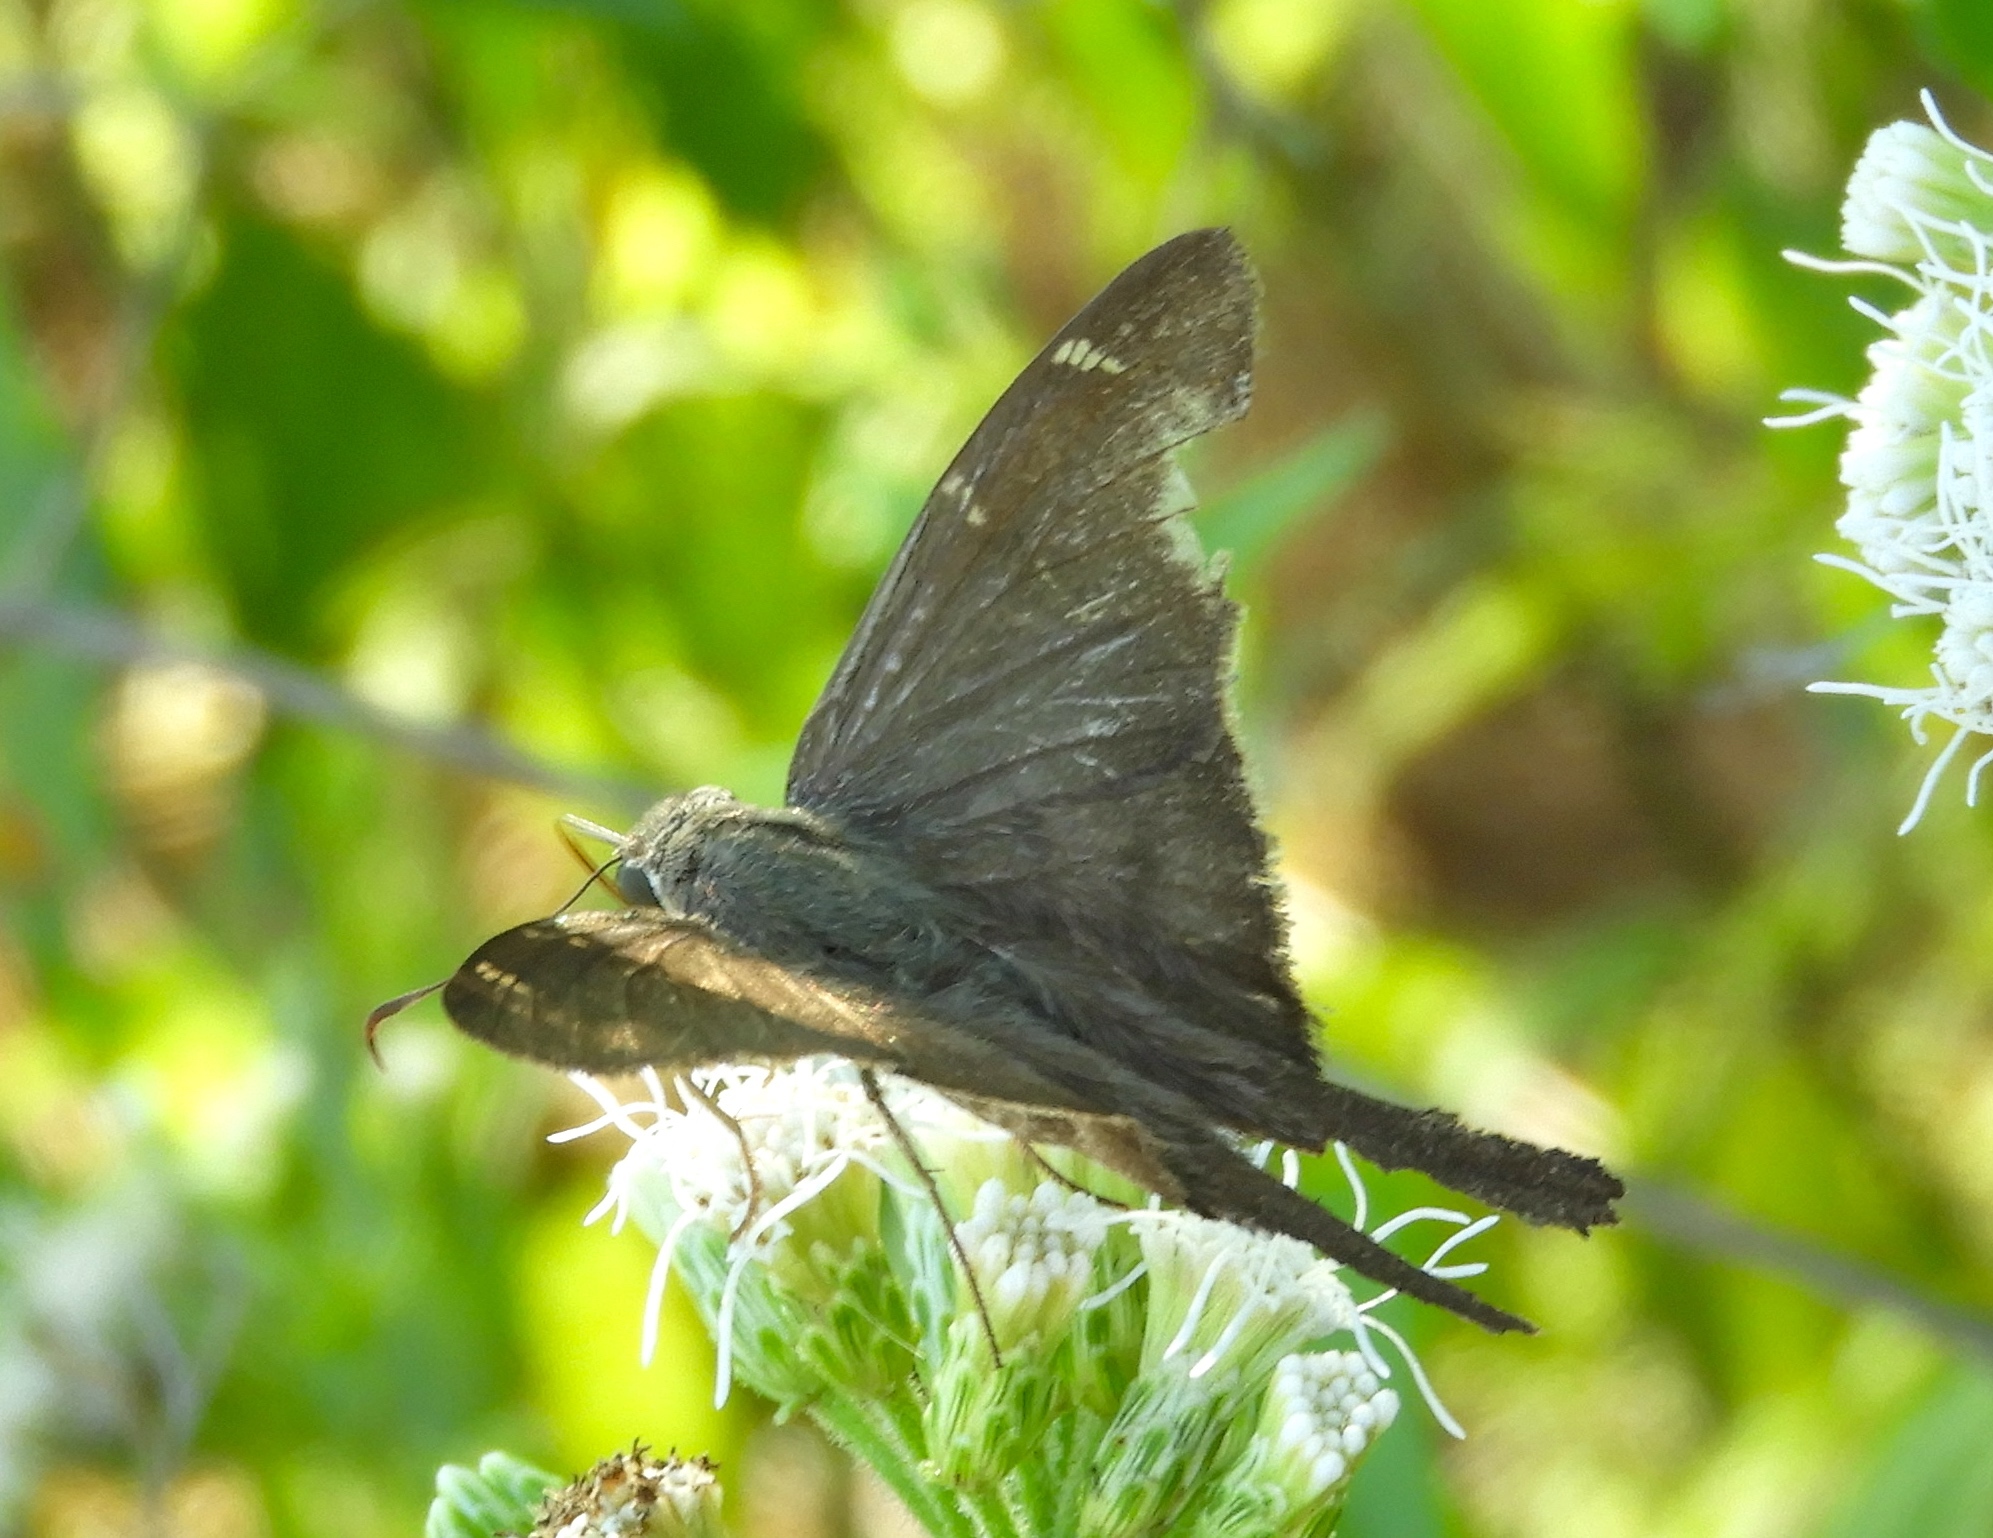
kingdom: Animalia
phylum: Arthropoda
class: Insecta
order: Lepidoptera
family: Hesperiidae
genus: Urbanus
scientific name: Urbanus procne
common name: Brown longtail
